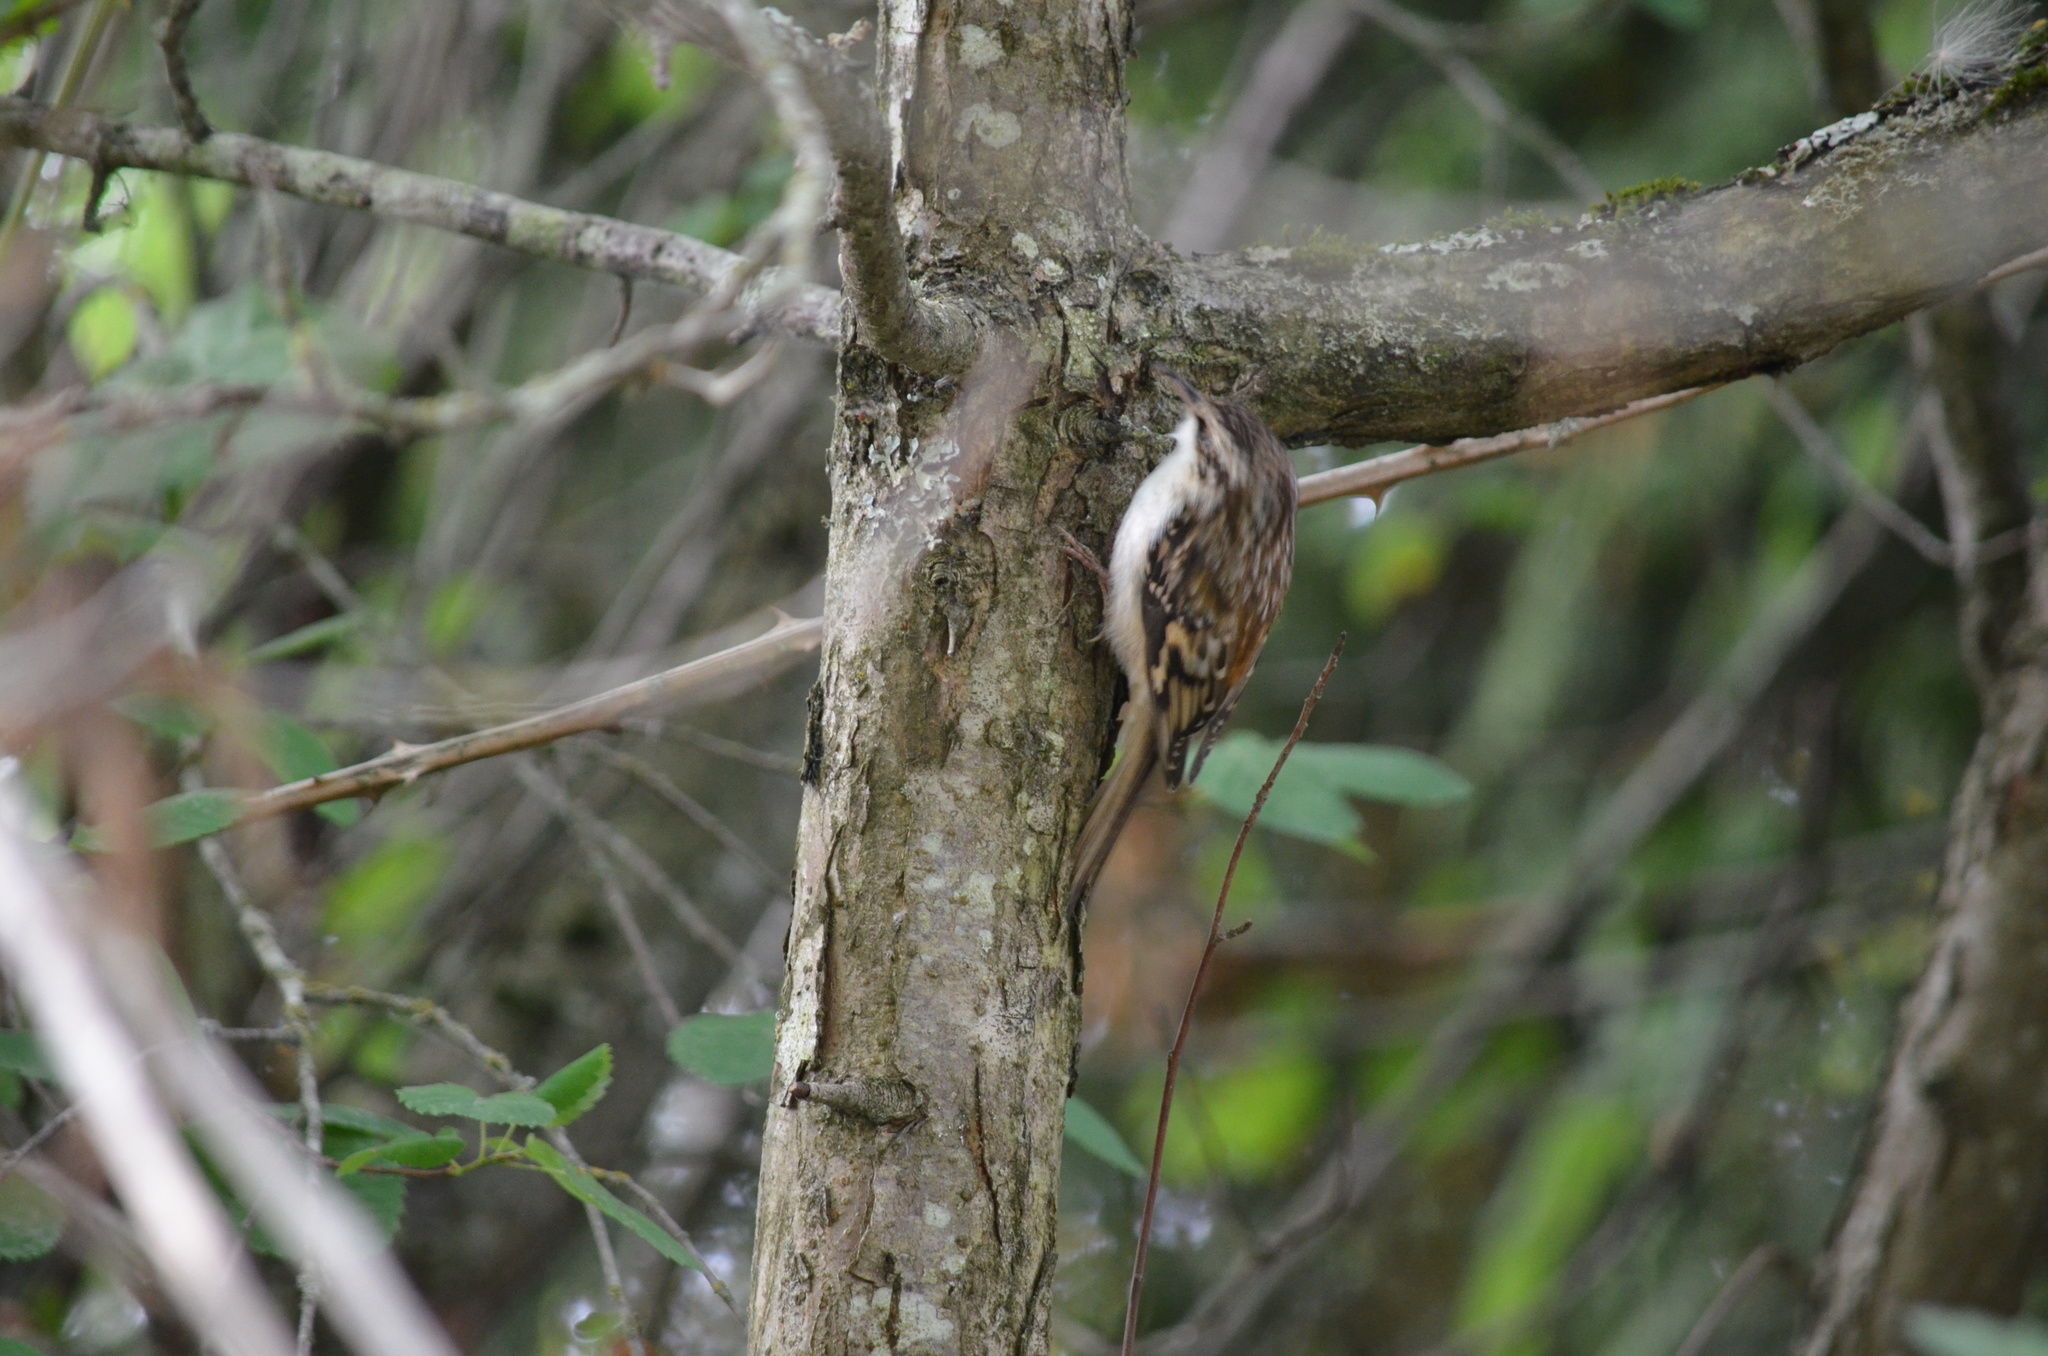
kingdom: Animalia
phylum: Chordata
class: Aves
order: Passeriformes
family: Certhiidae
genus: Certhia
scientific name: Certhia americana
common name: Brown creeper
